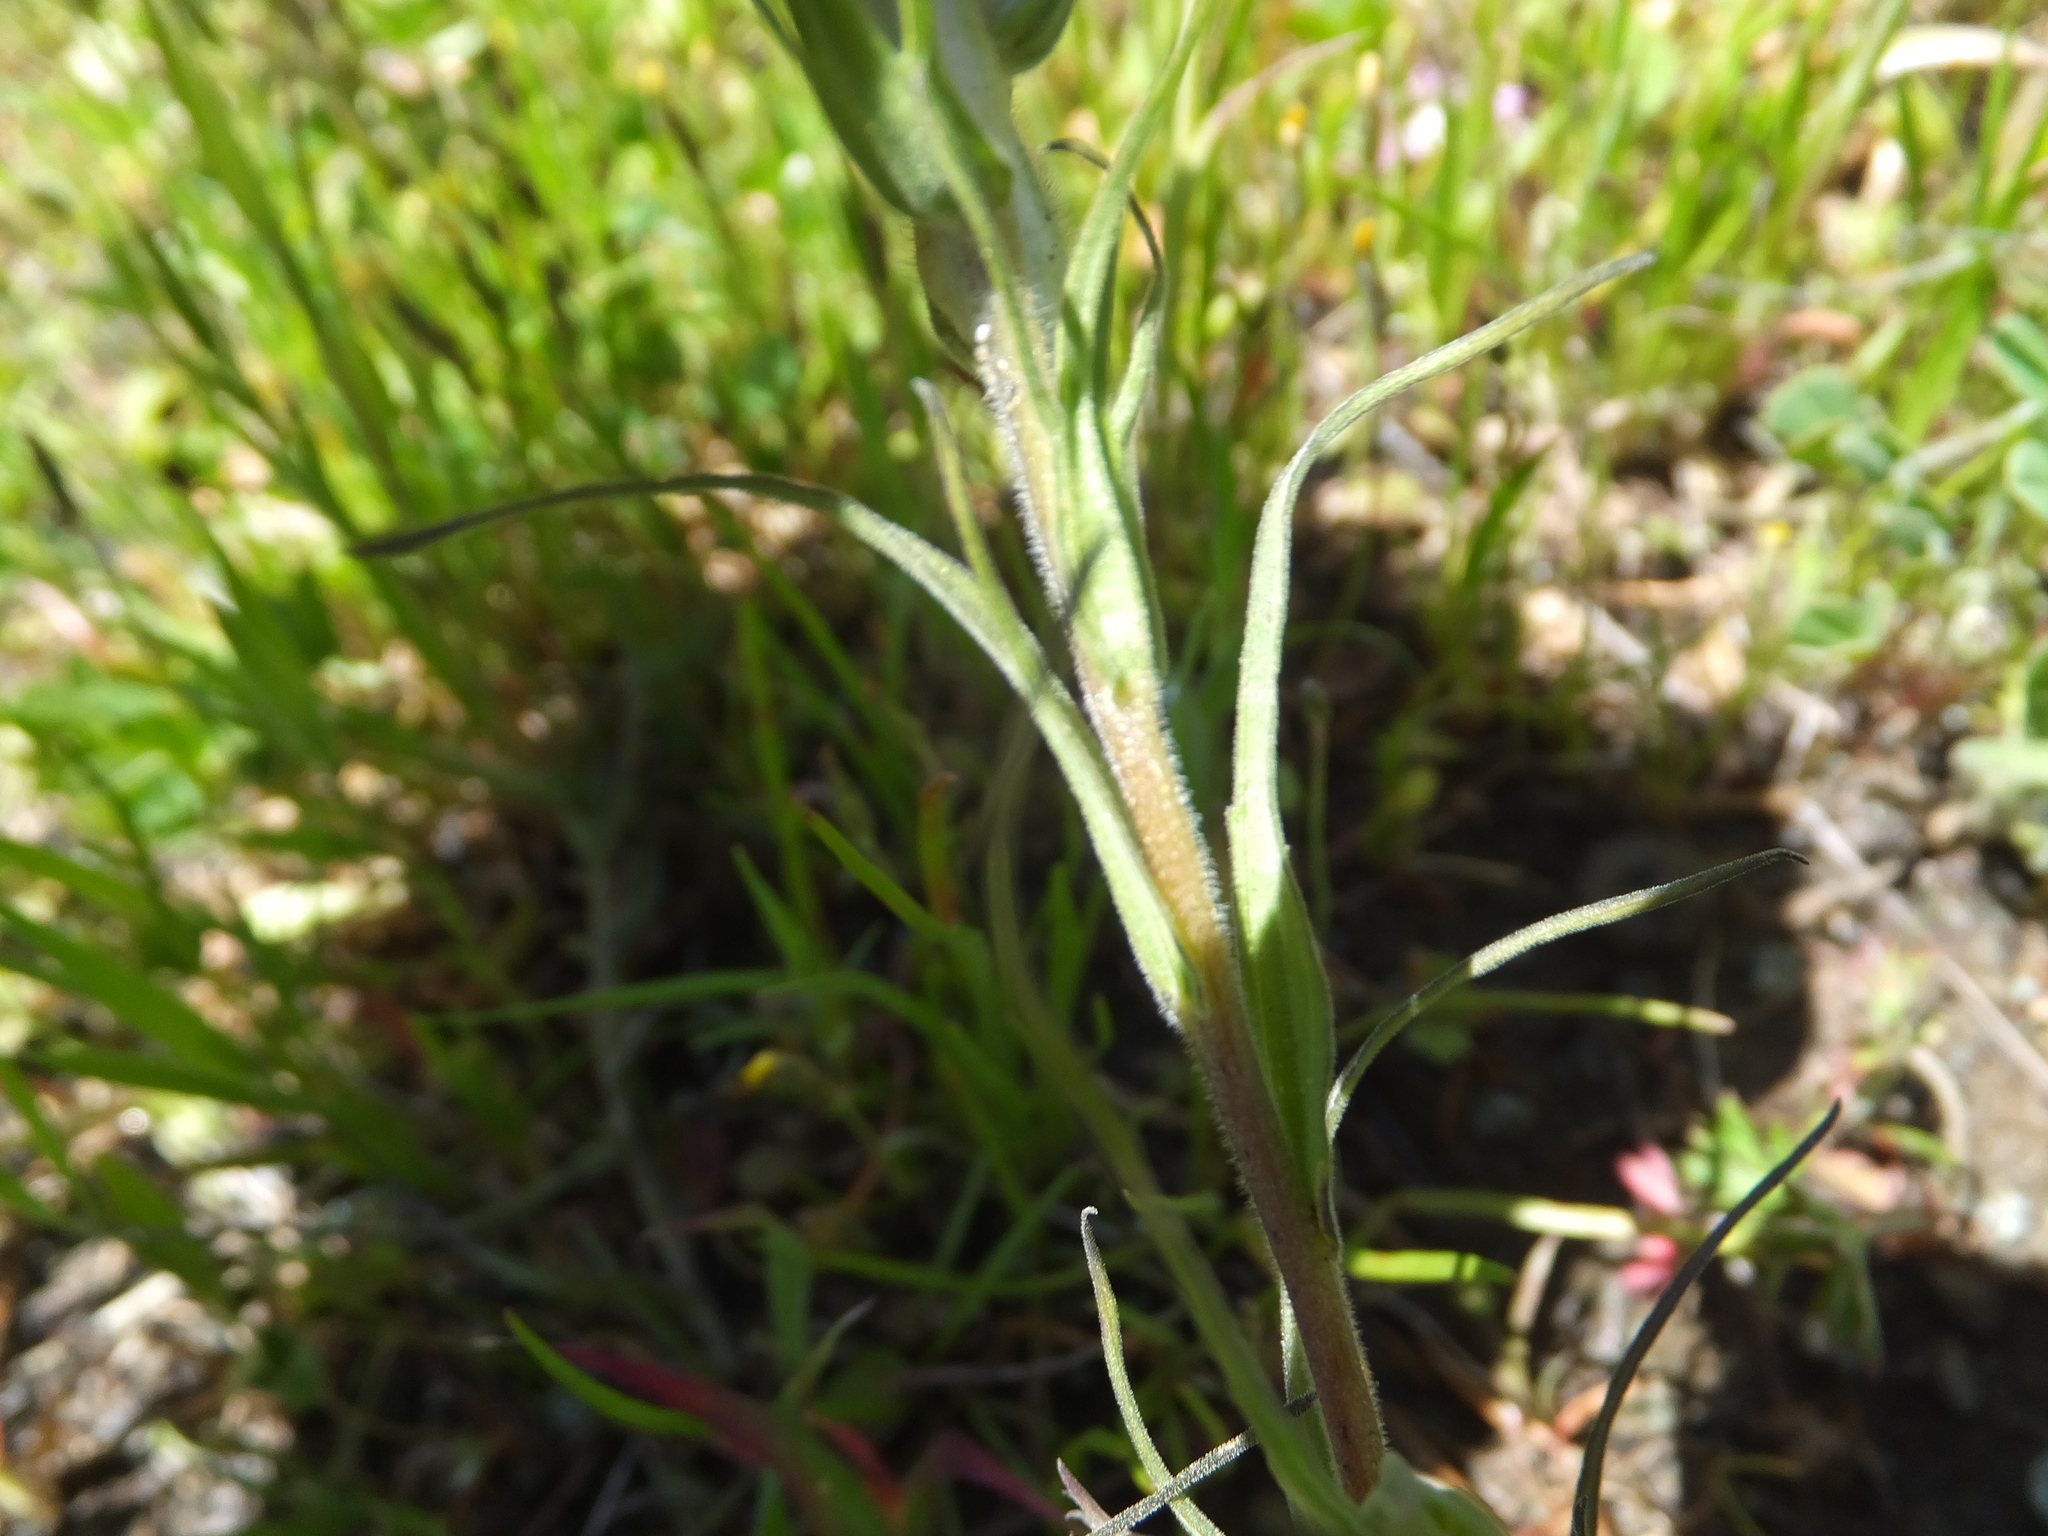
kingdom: Plantae
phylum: Tracheophyta
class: Magnoliopsida
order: Lamiales
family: Orobanchaceae
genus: Castilleja
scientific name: Castilleja densiflora
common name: Dense-flower indian paintbrush
